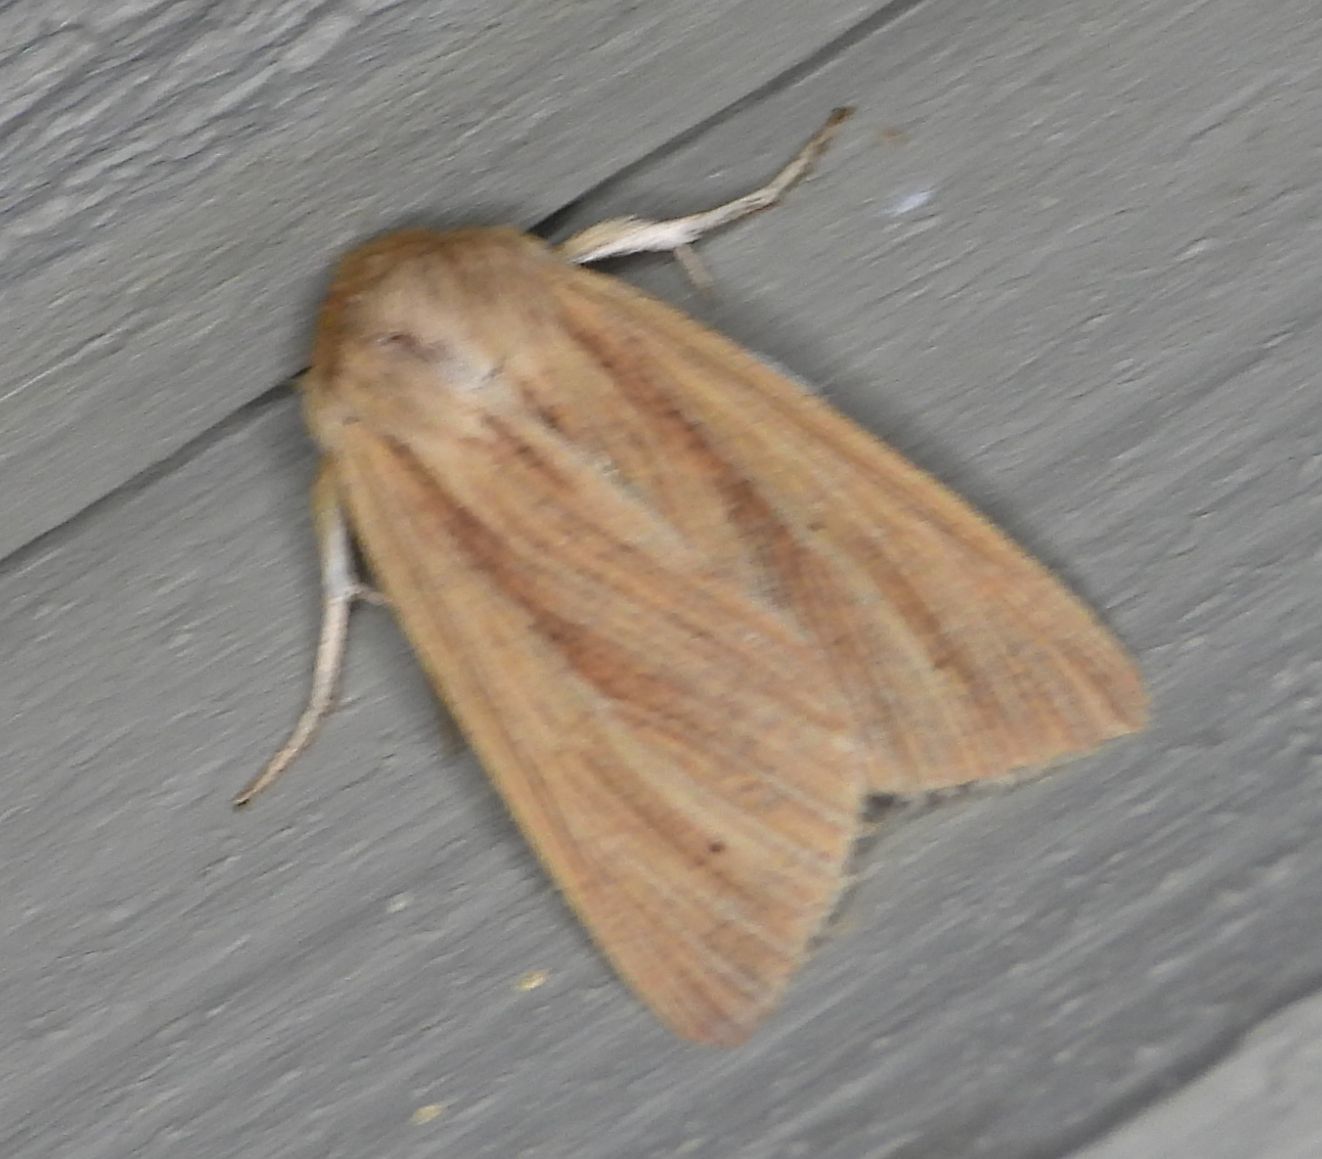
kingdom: Animalia
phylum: Arthropoda
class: Insecta
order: Lepidoptera
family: Noctuidae
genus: Mythimna
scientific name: Mythimna oxygala
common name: Lesser wainscot
